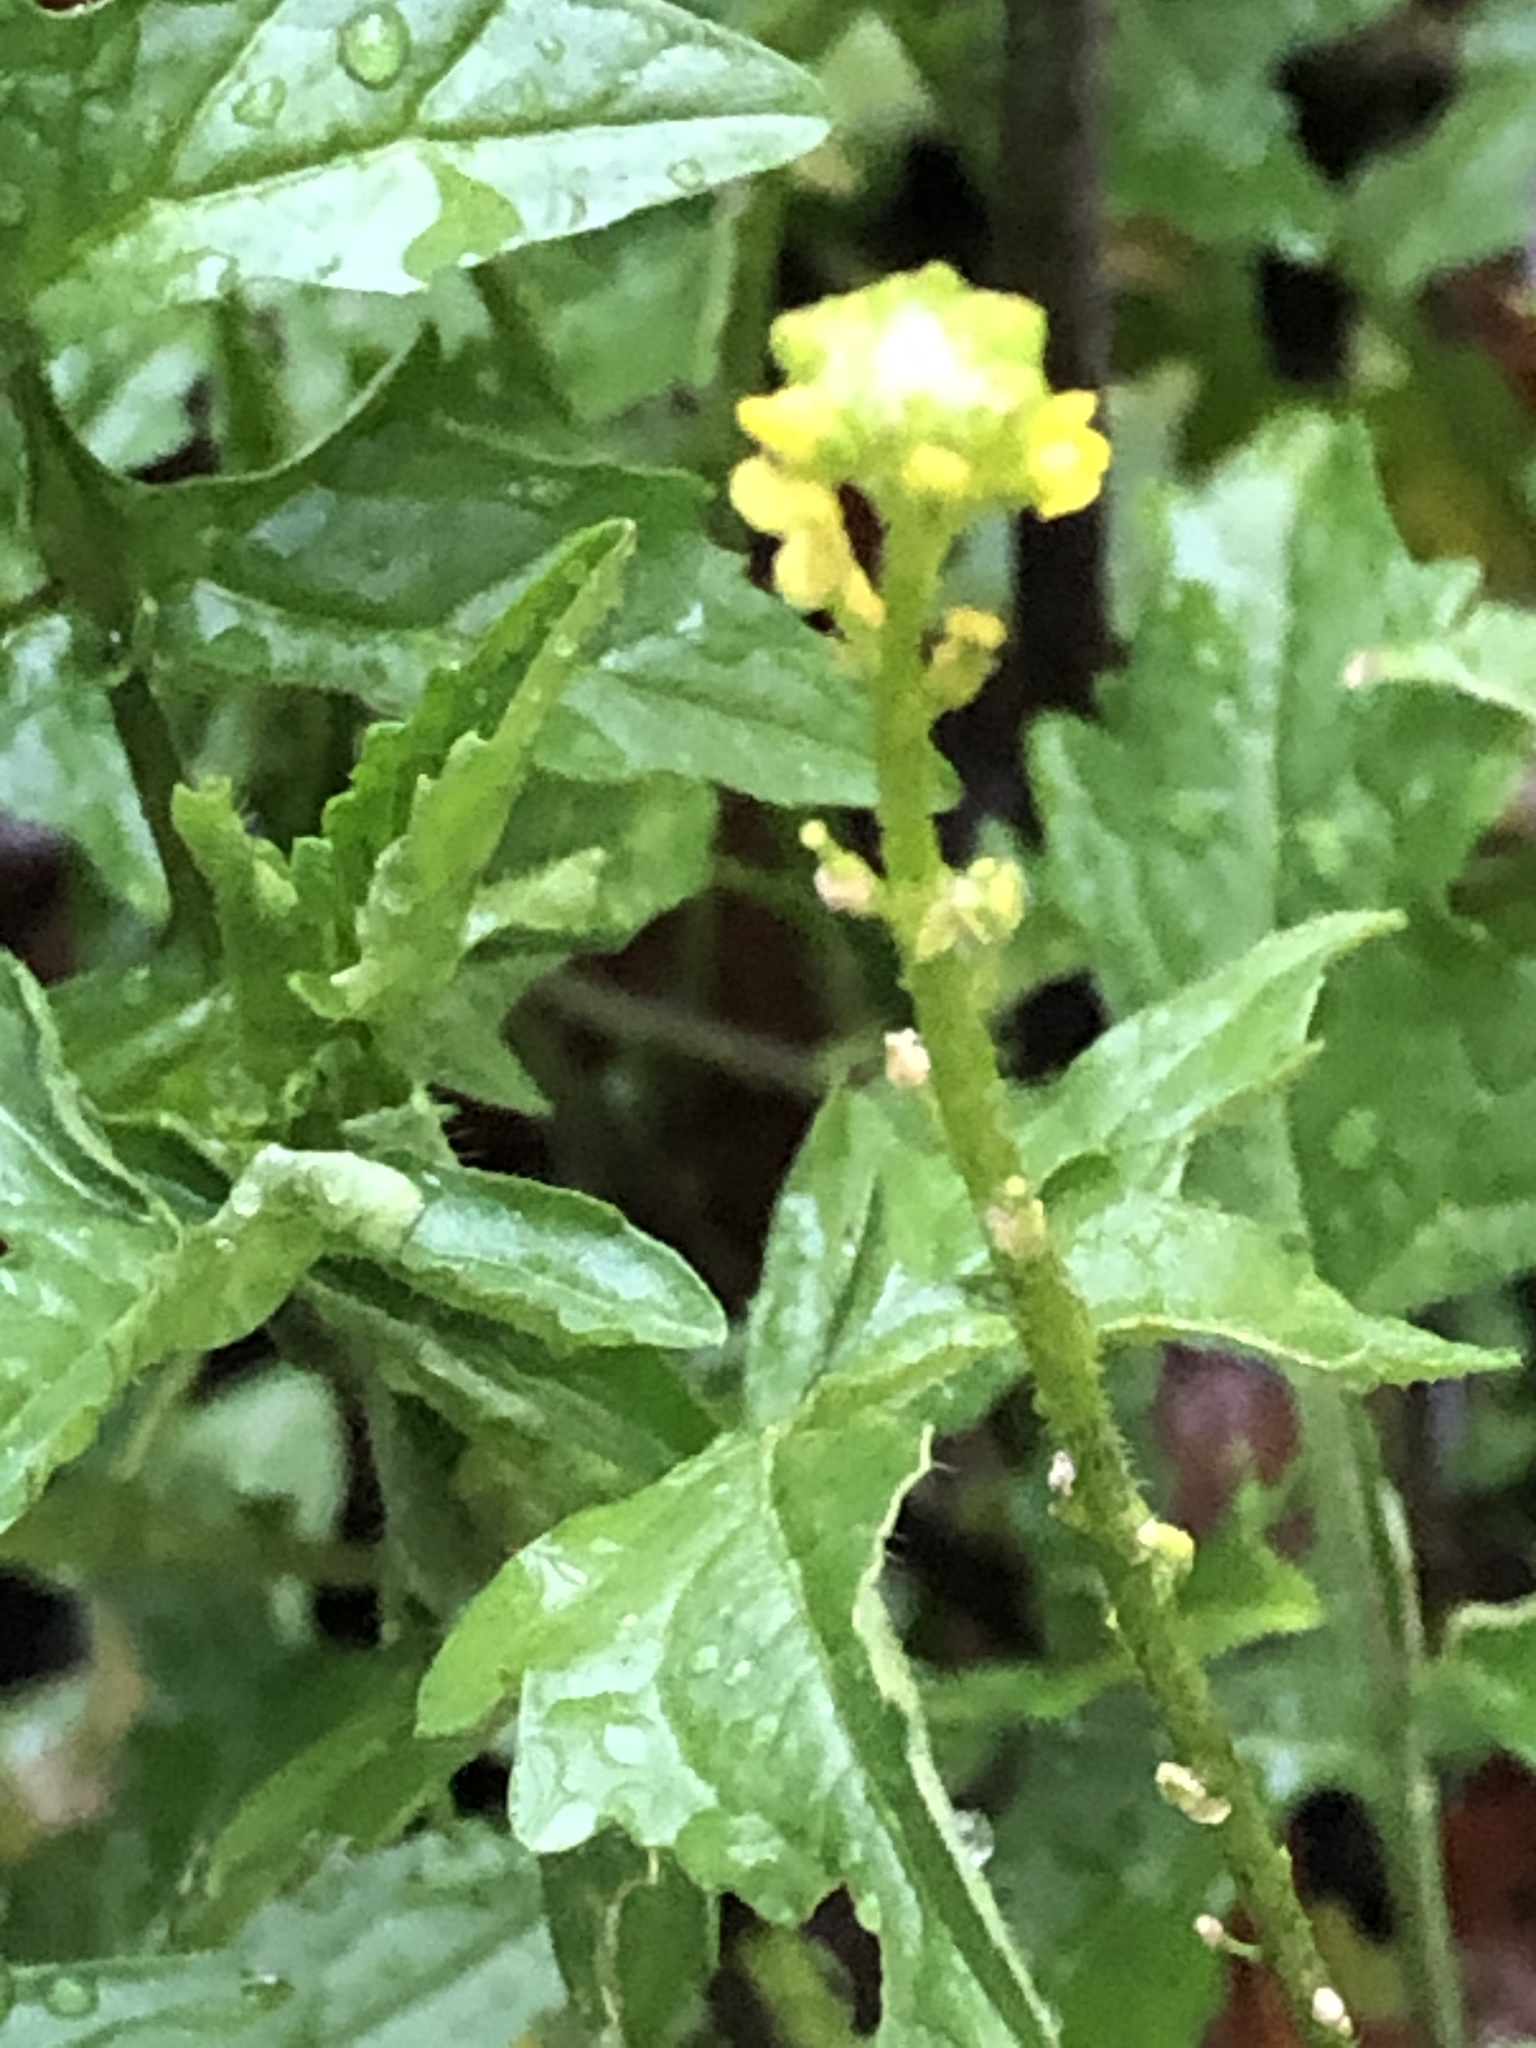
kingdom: Plantae
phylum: Tracheophyta
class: Magnoliopsida
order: Brassicales
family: Brassicaceae
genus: Sisymbrium
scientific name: Sisymbrium officinale
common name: Hedge mustard
